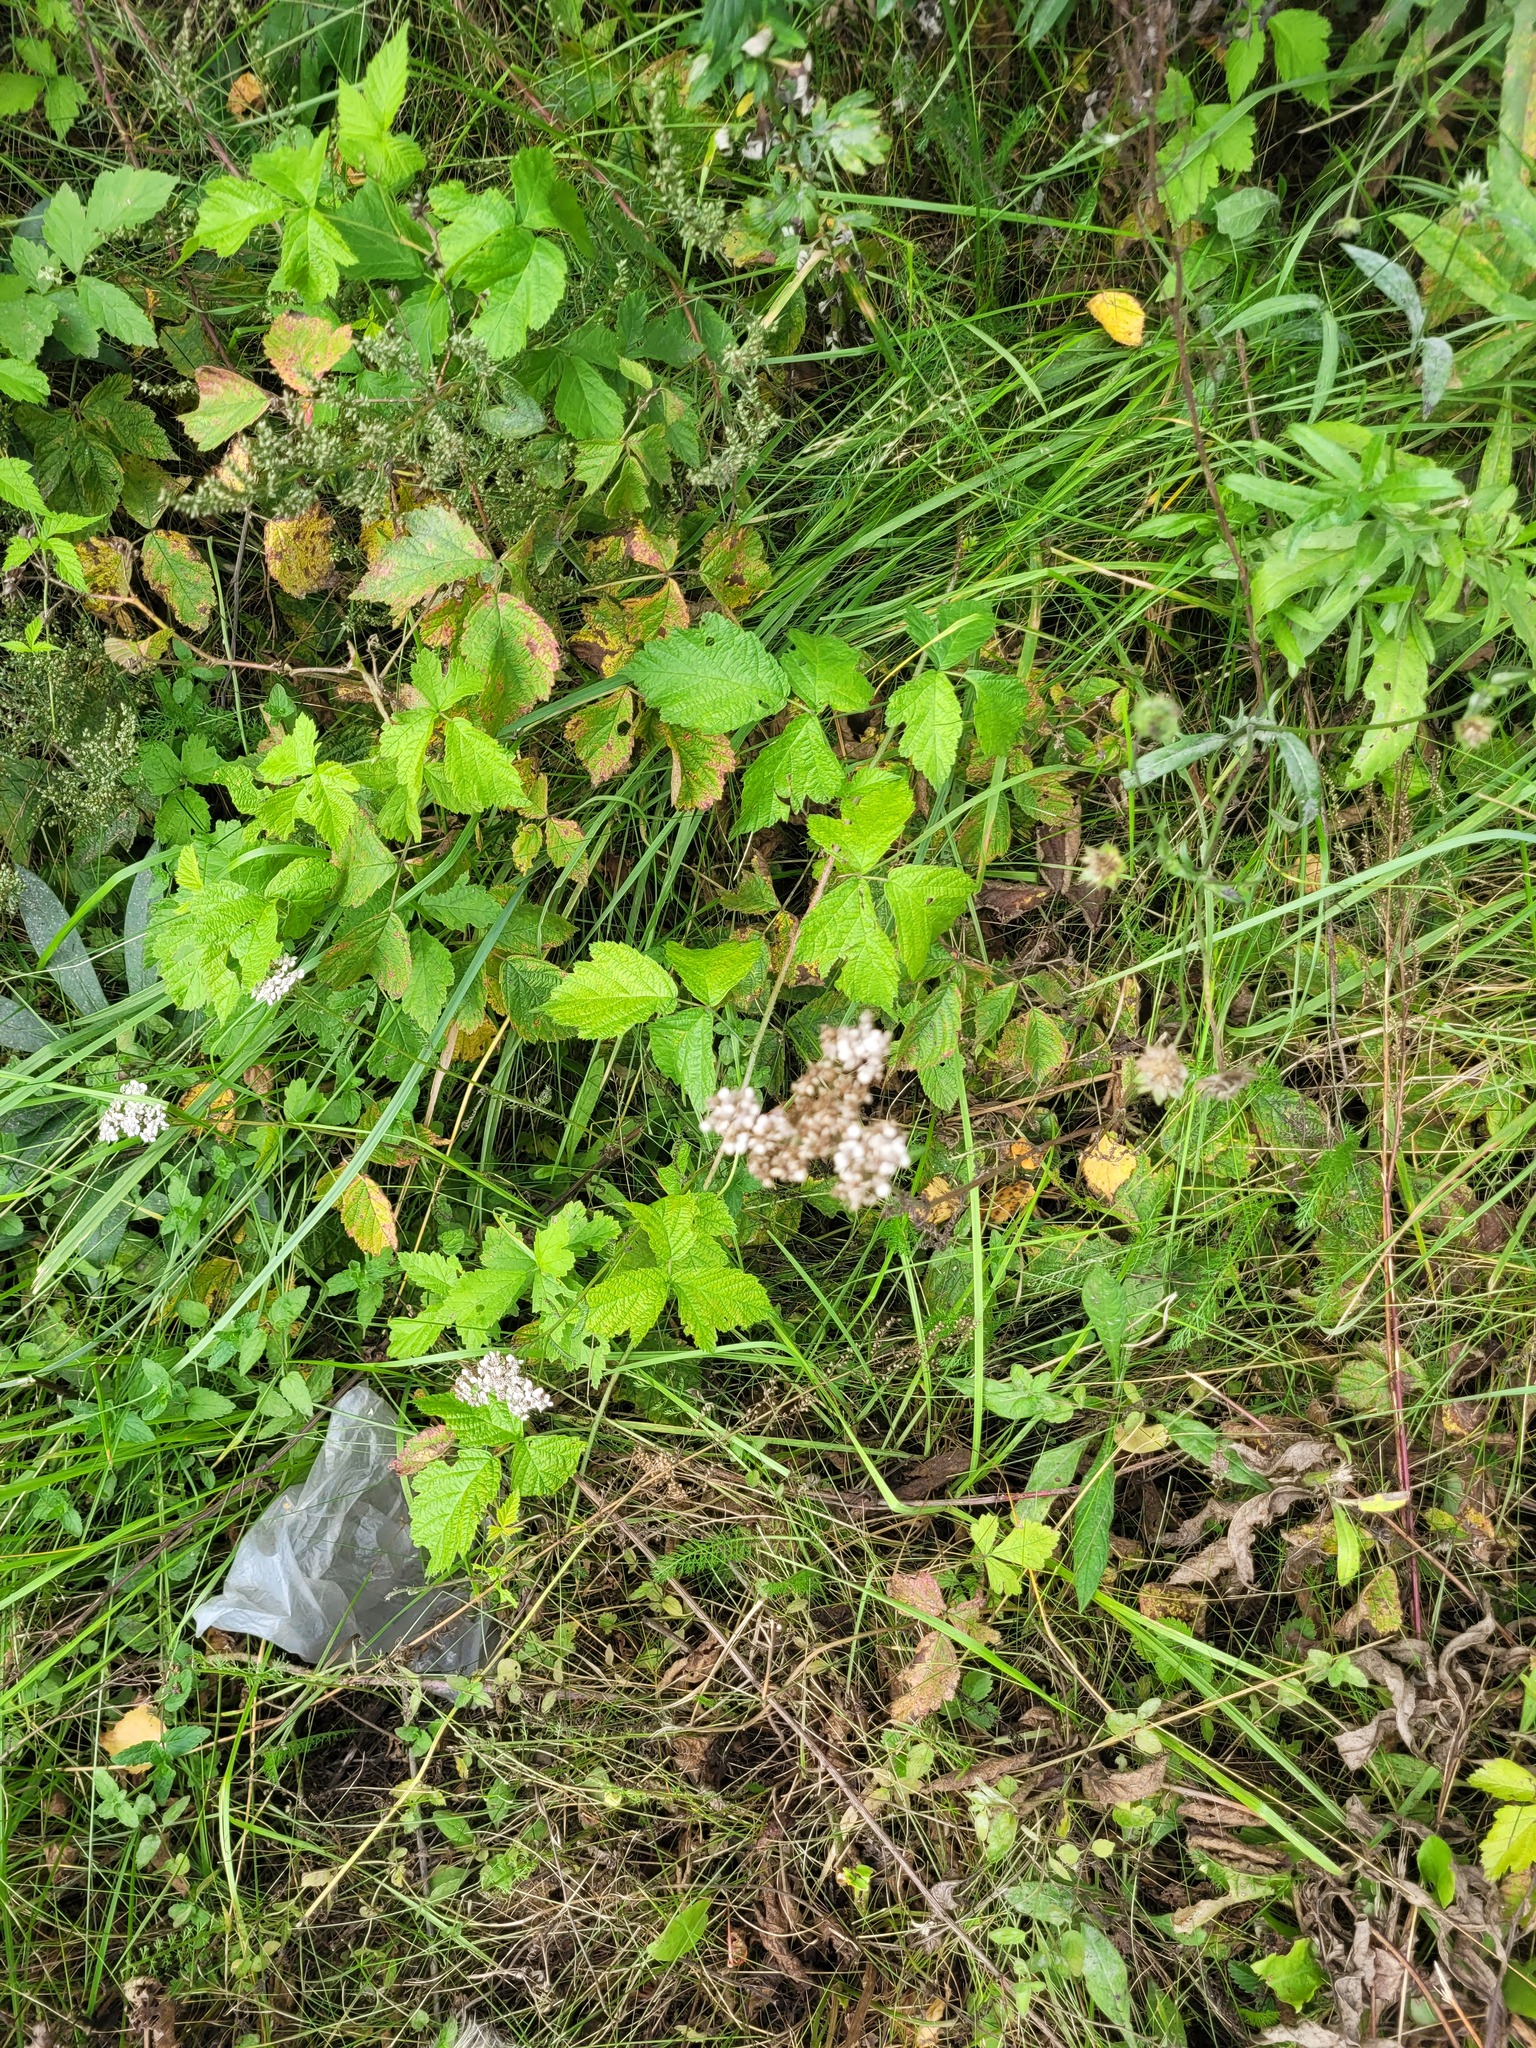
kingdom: Plantae
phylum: Tracheophyta
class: Magnoliopsida
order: Asterales
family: Asteraceae
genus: Achillea
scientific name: Achillea millefolium
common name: Yarrow
